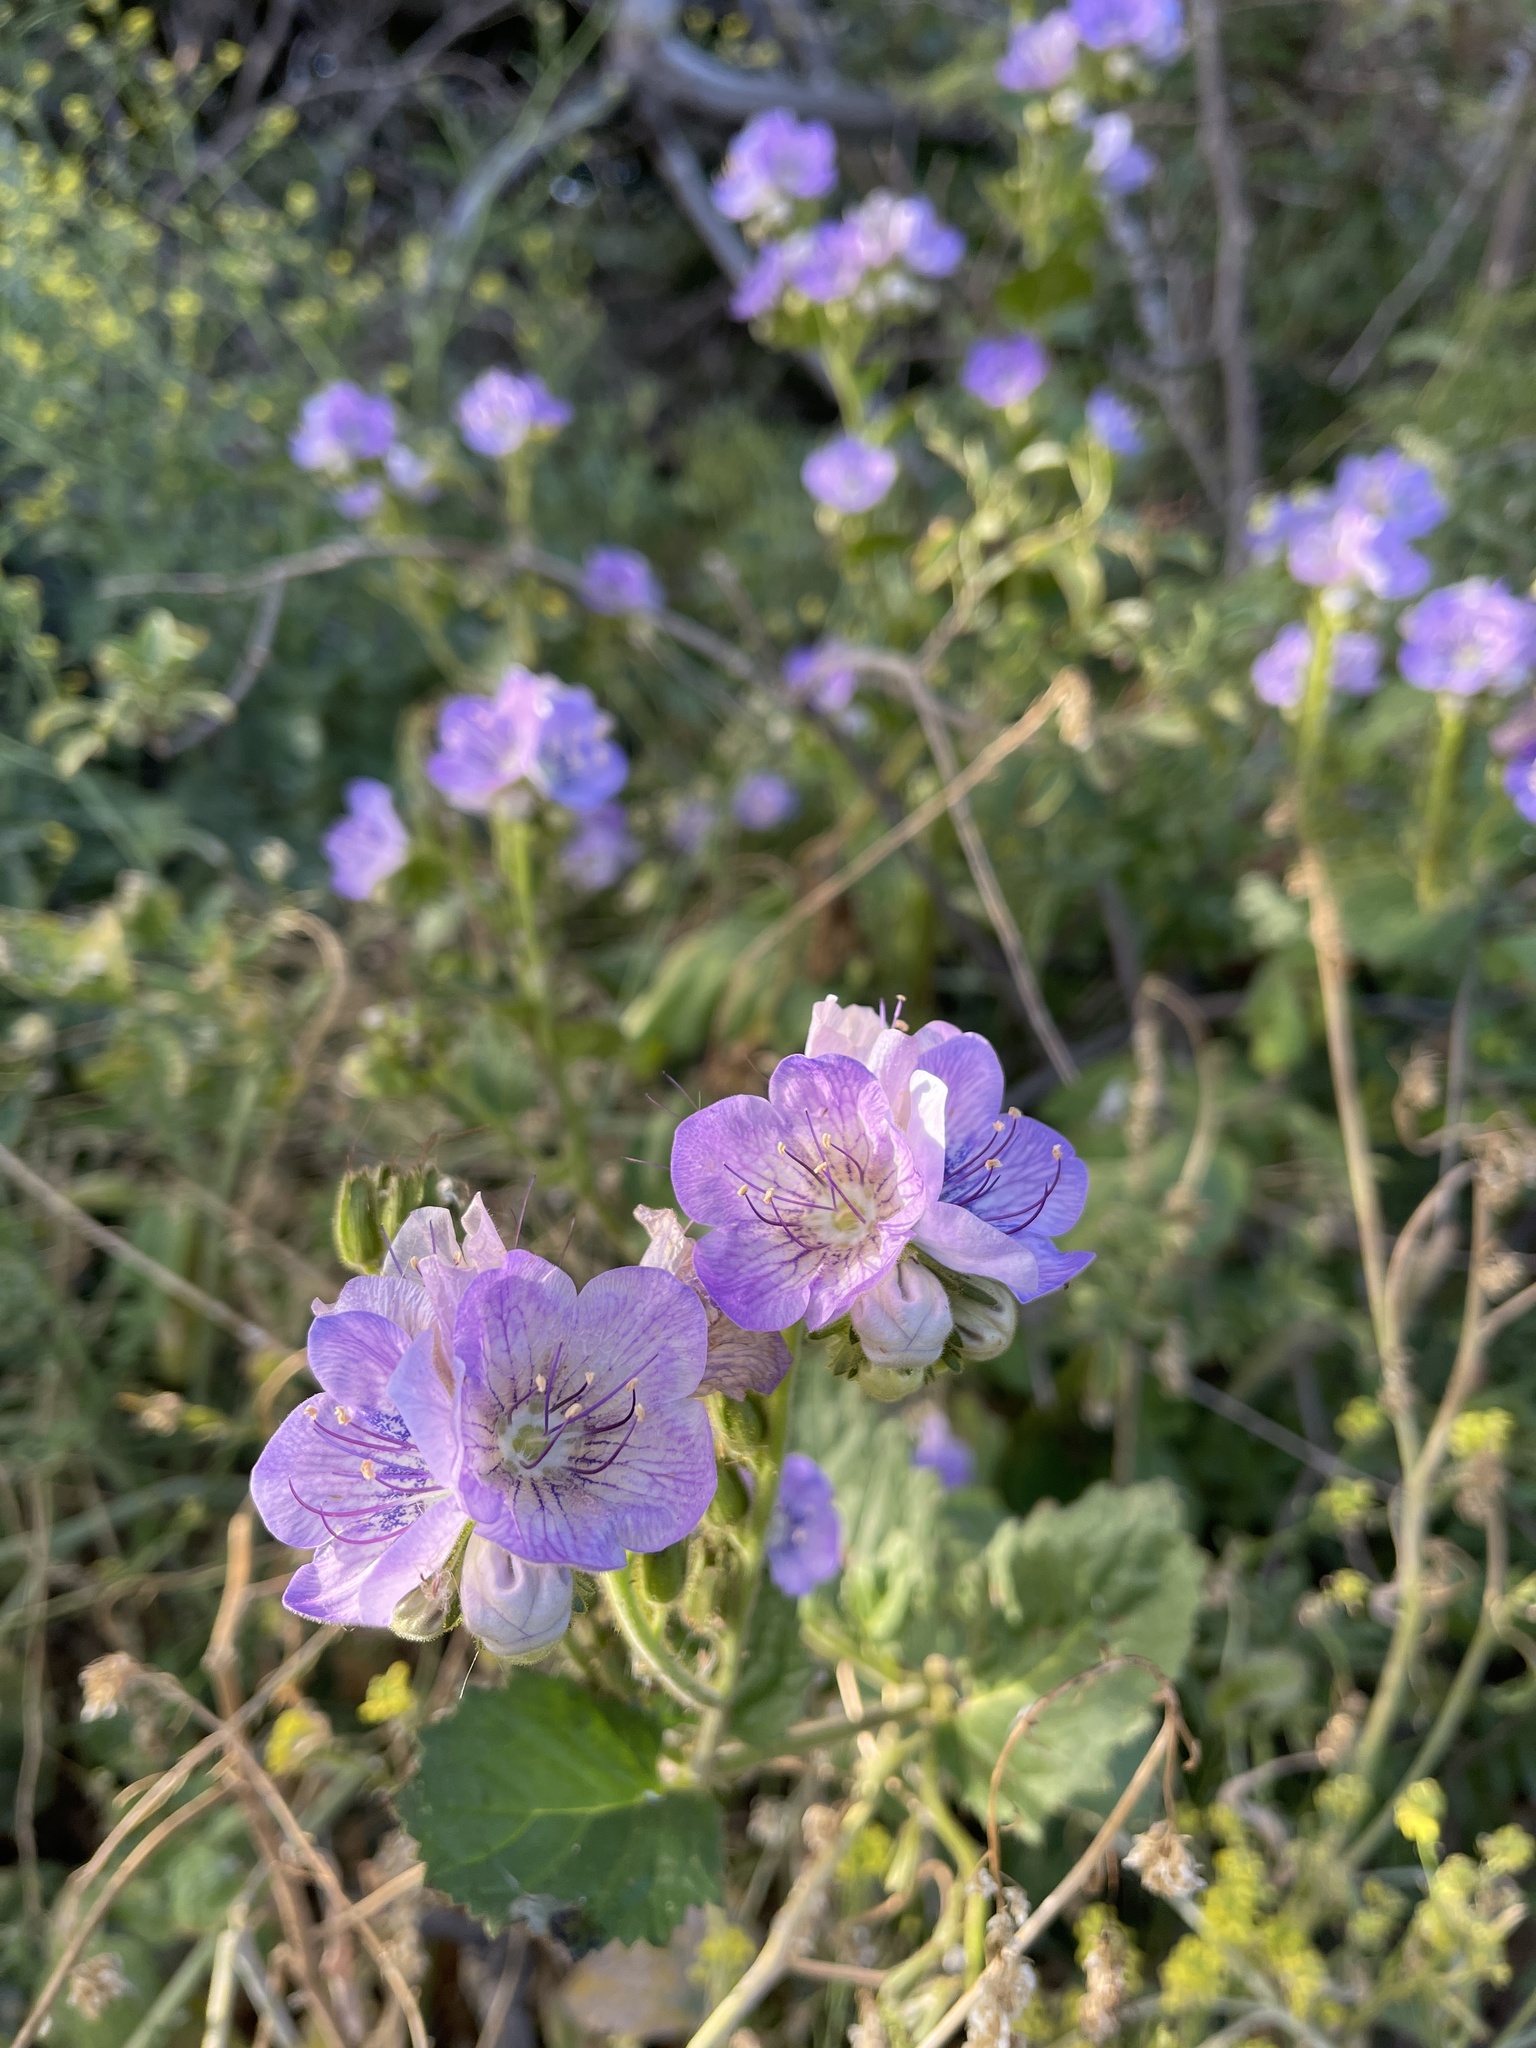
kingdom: Plantae
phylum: Tracheophyta
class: Magnoliopsida
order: Boraginales
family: Hydrophyllaceae
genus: Phacelia
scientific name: Phacelia grandiflora
